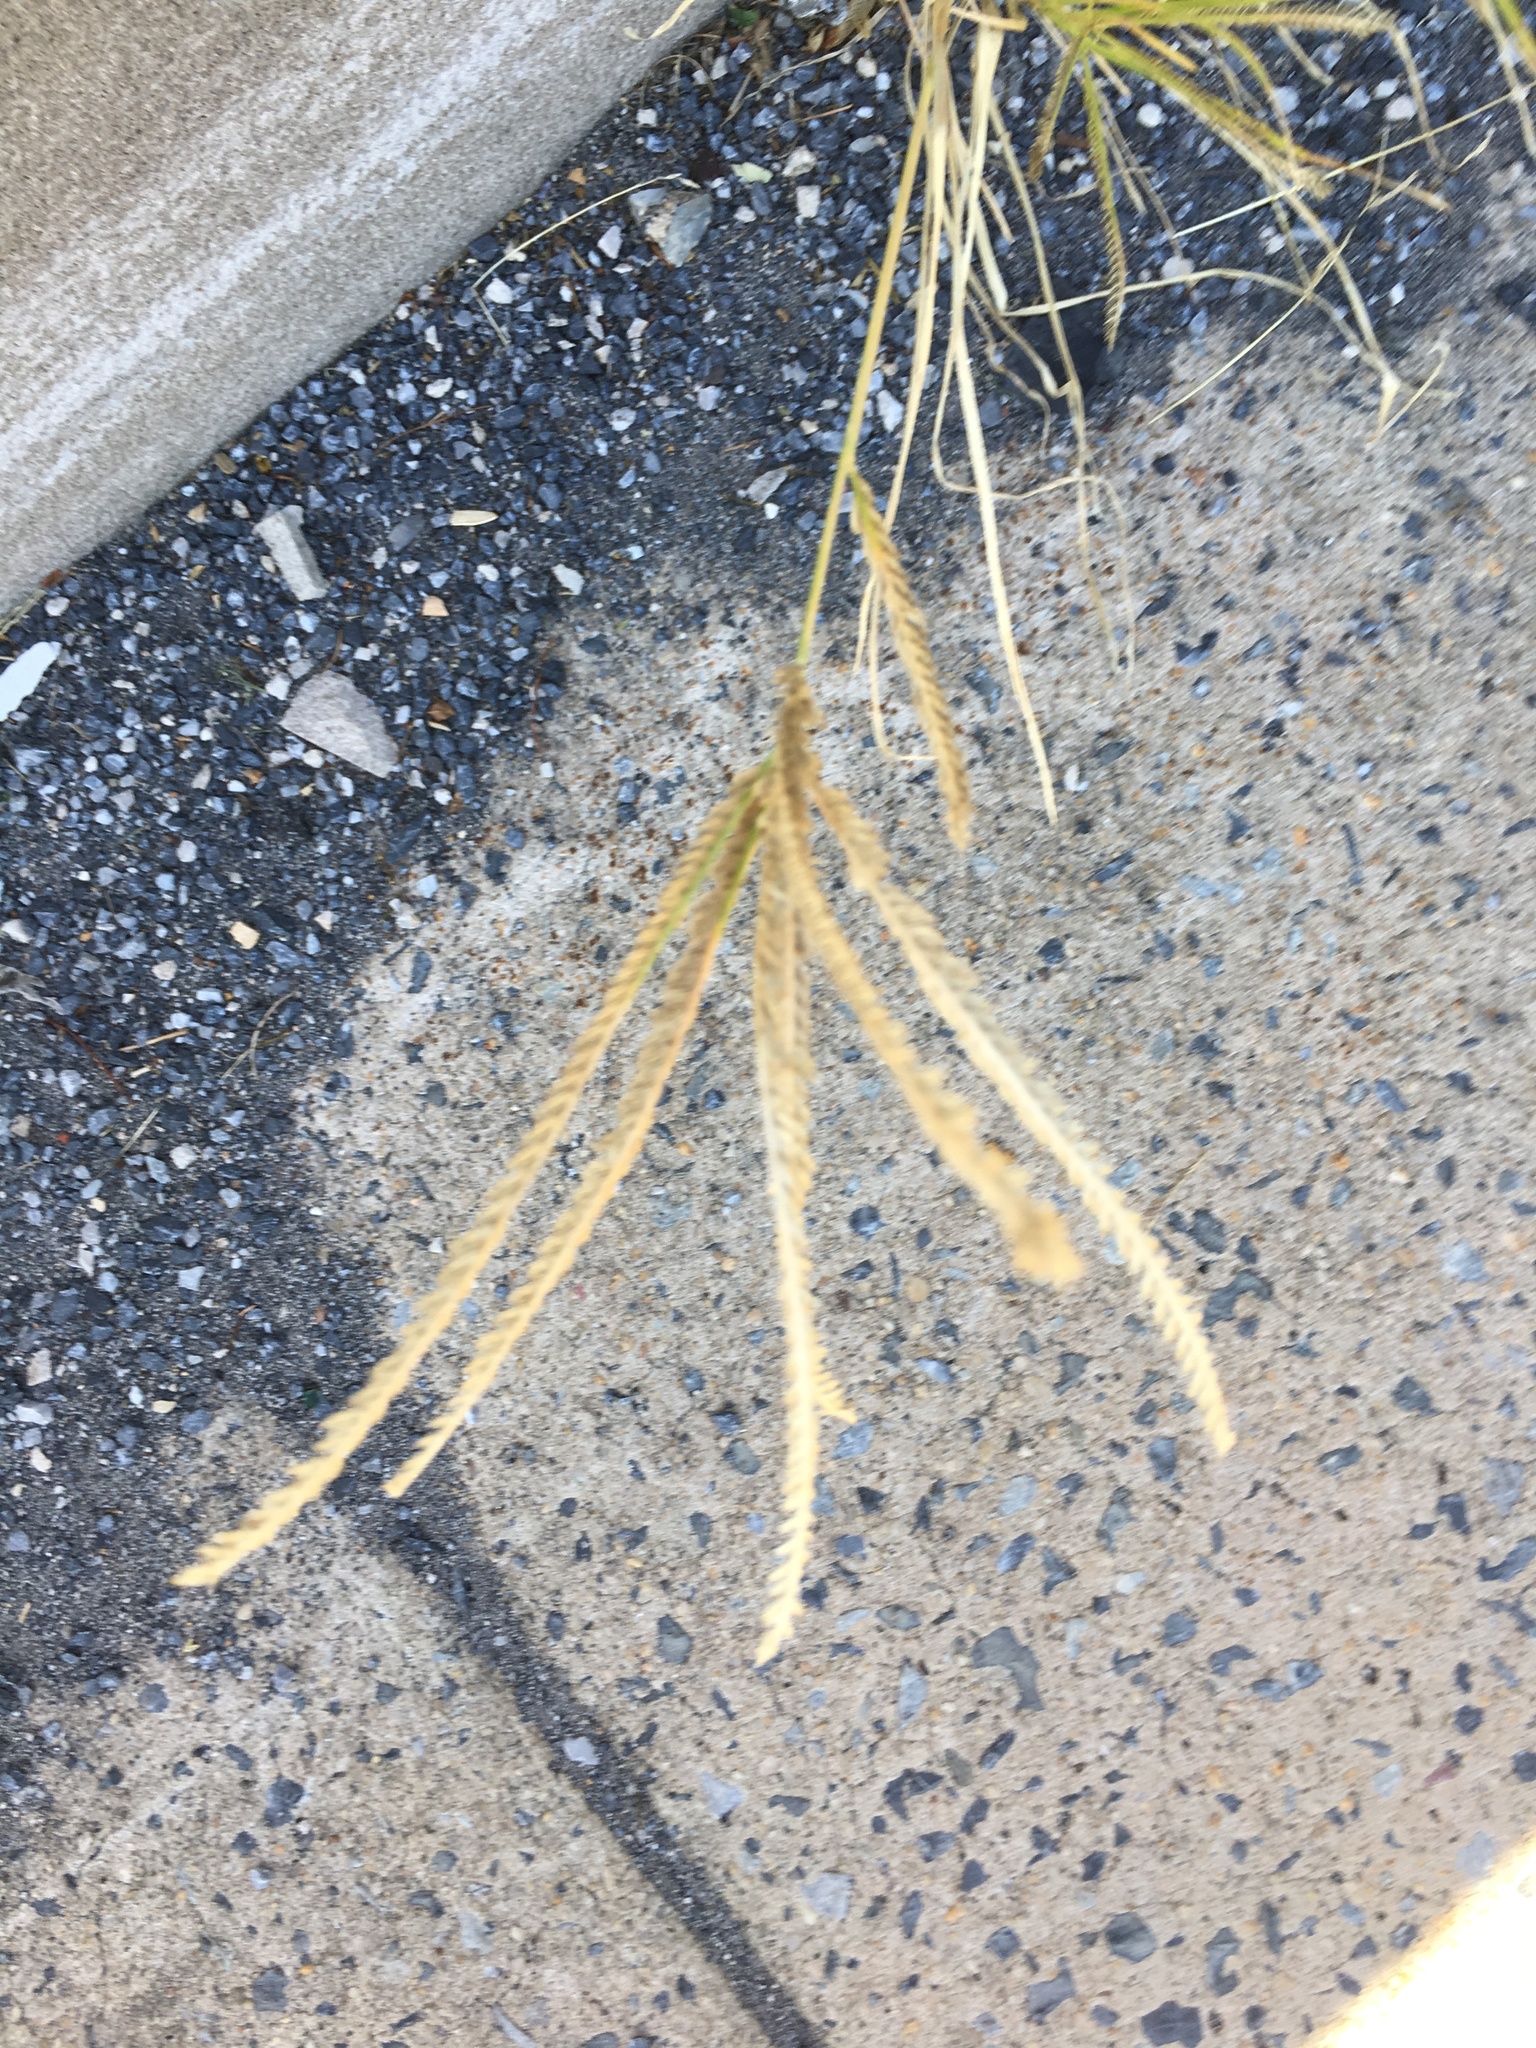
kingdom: Plantae
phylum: Tracheophyta
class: Liliopsida
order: Poales
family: Poaceae
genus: Eleusine
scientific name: Eleusine indica
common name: Yard-grass
